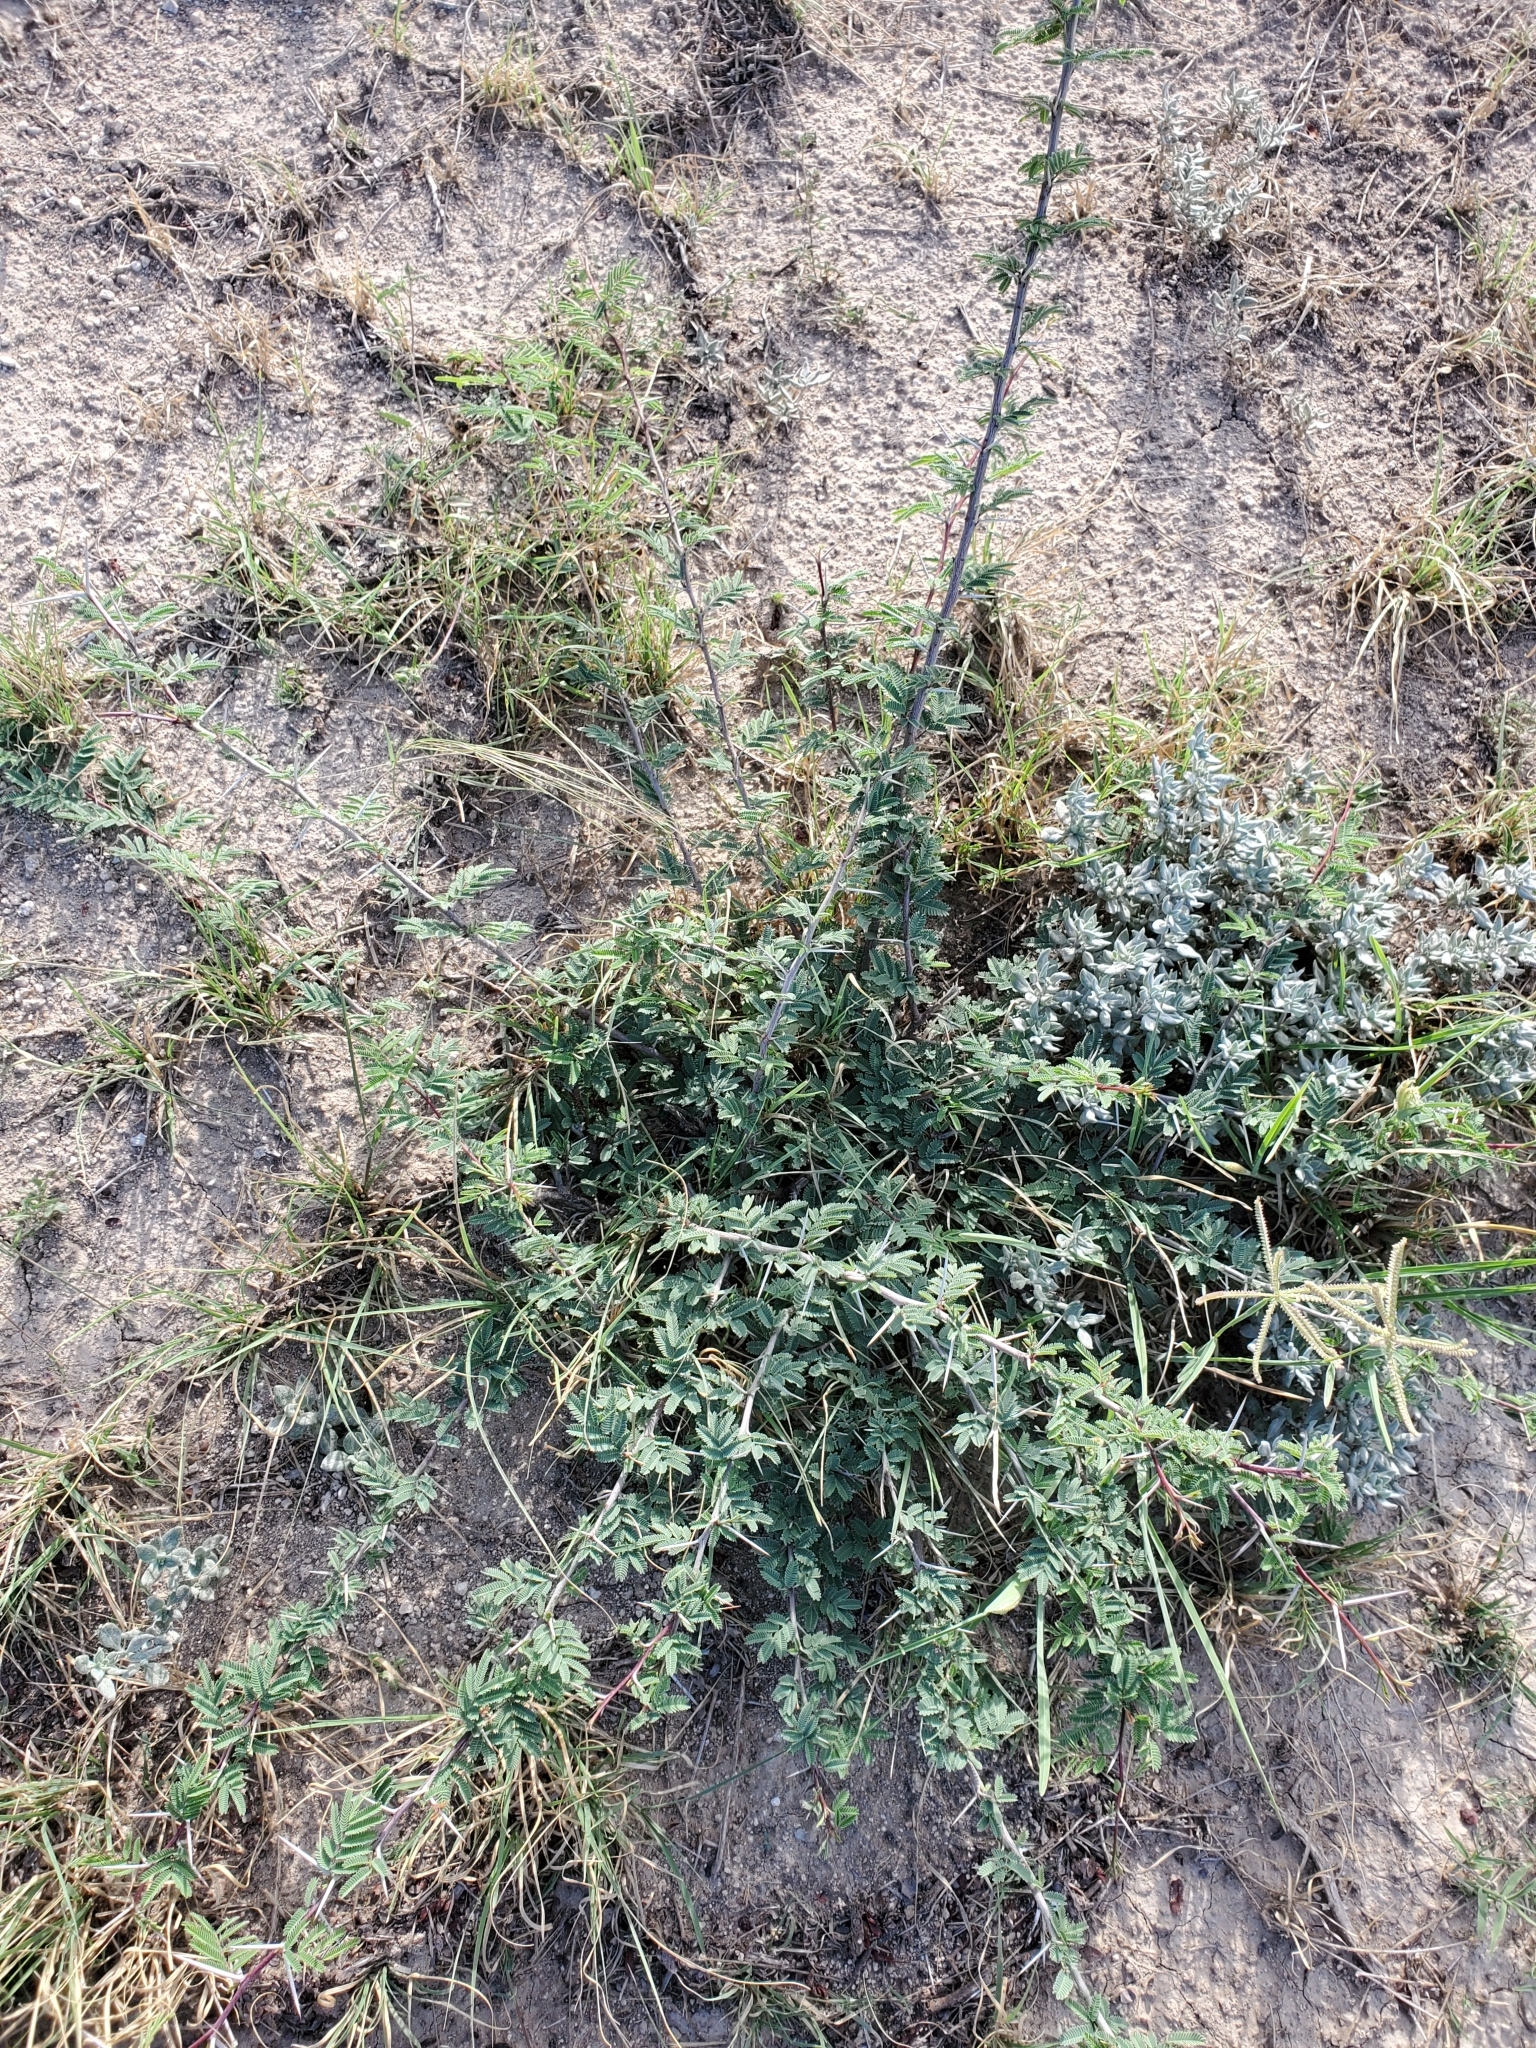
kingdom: Plantae
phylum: Tracheophyta
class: Magnoliopsida
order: Fabales
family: Fabaceae
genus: Vachellia
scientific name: Vachellia farnesiana
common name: Sweet acacia
